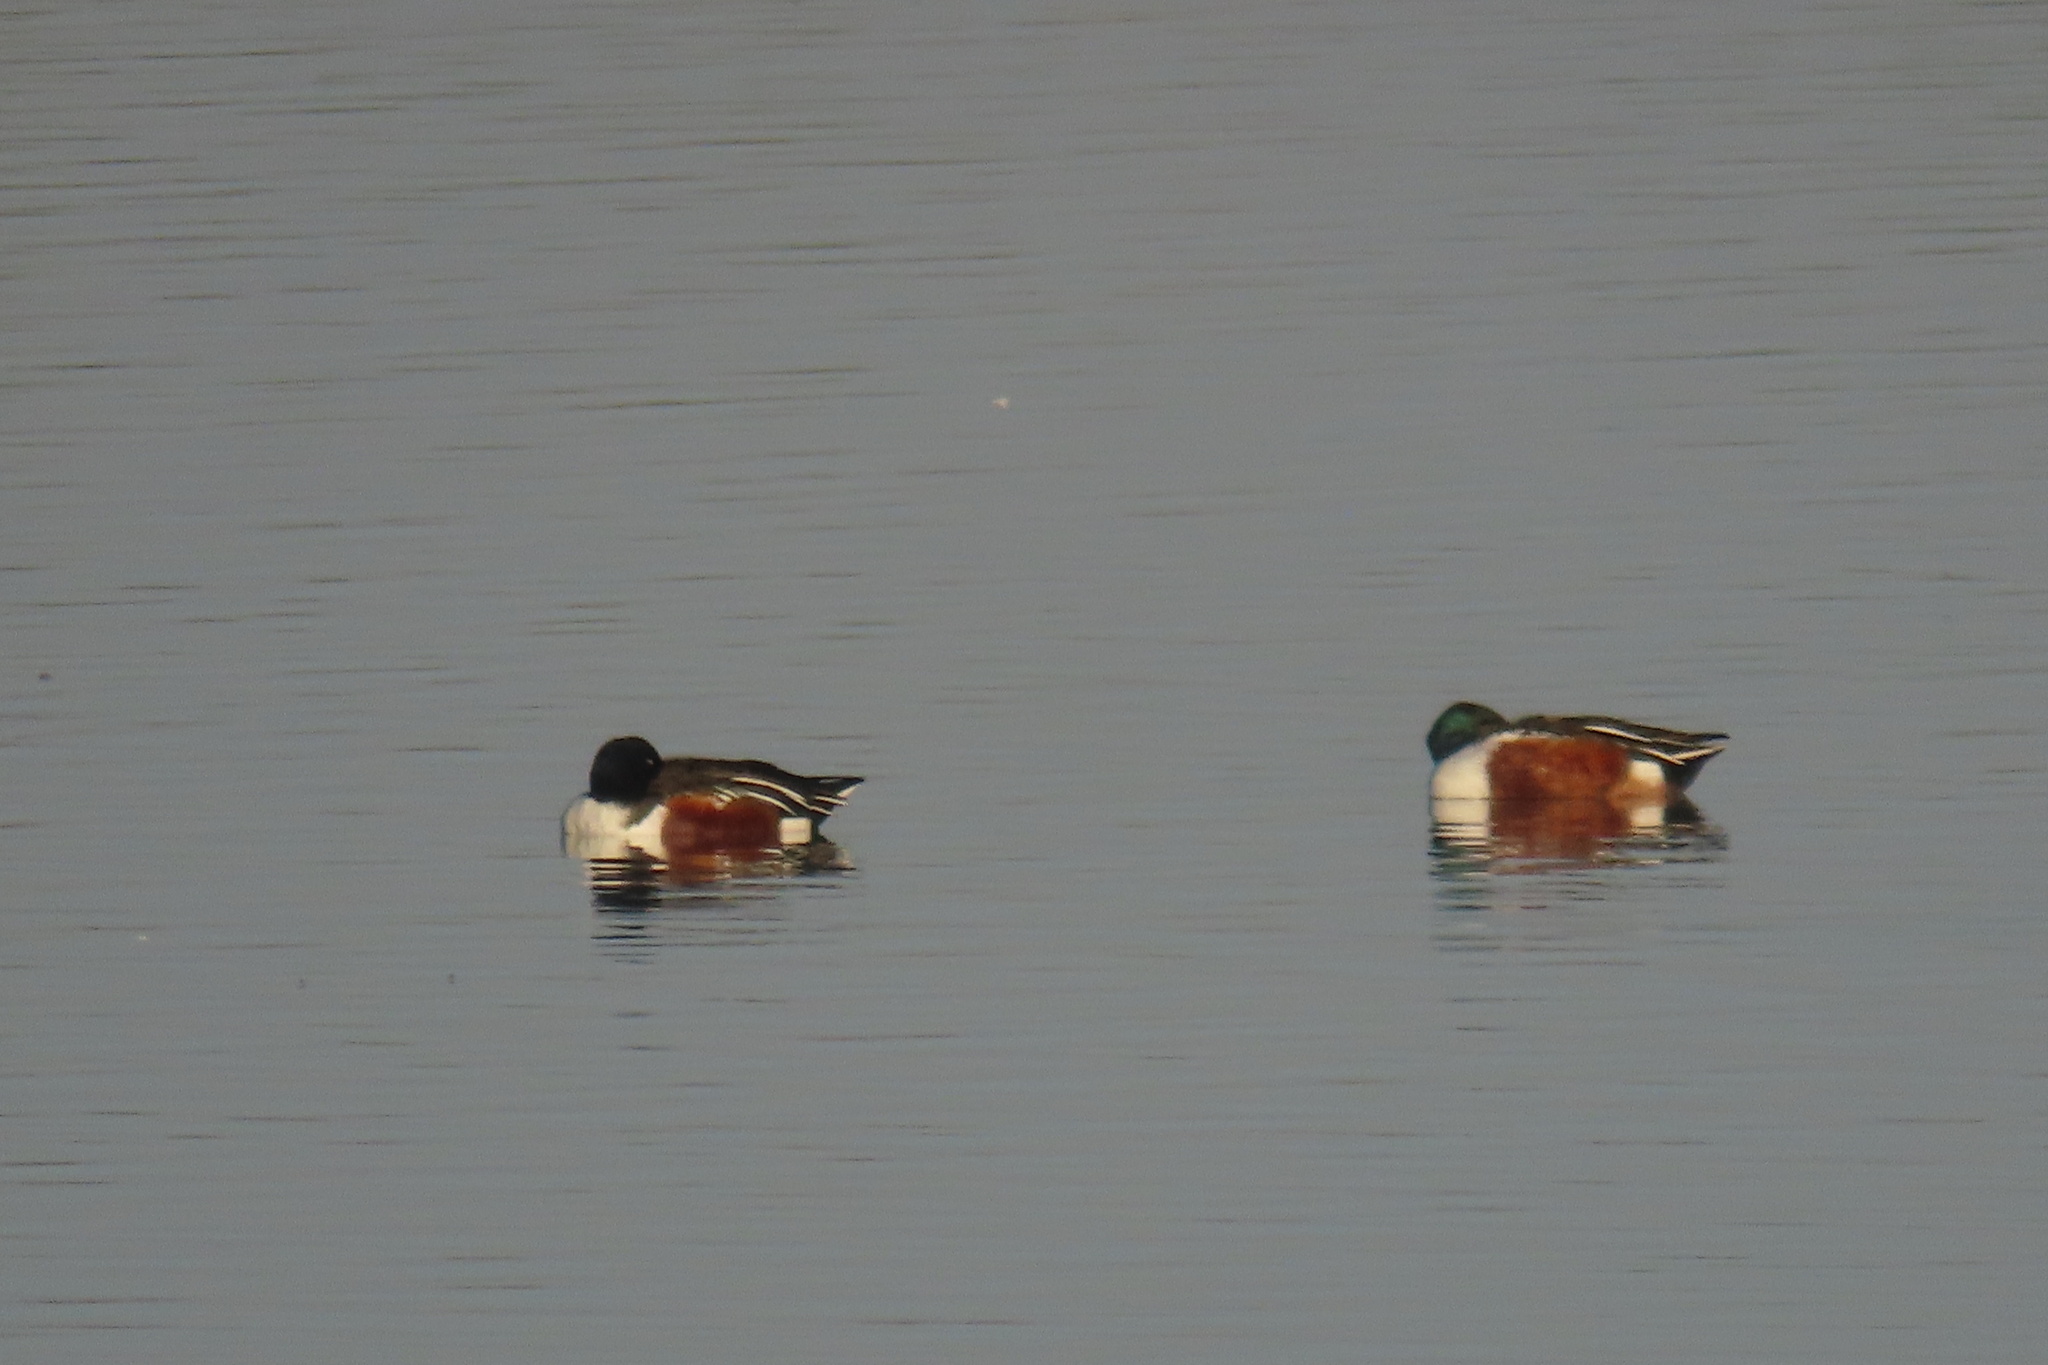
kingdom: Animalia
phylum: Chordata
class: Aves
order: Anseriformes
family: Anatidae
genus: Spatula
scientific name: Spatula clypeata
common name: Northern shoveler
